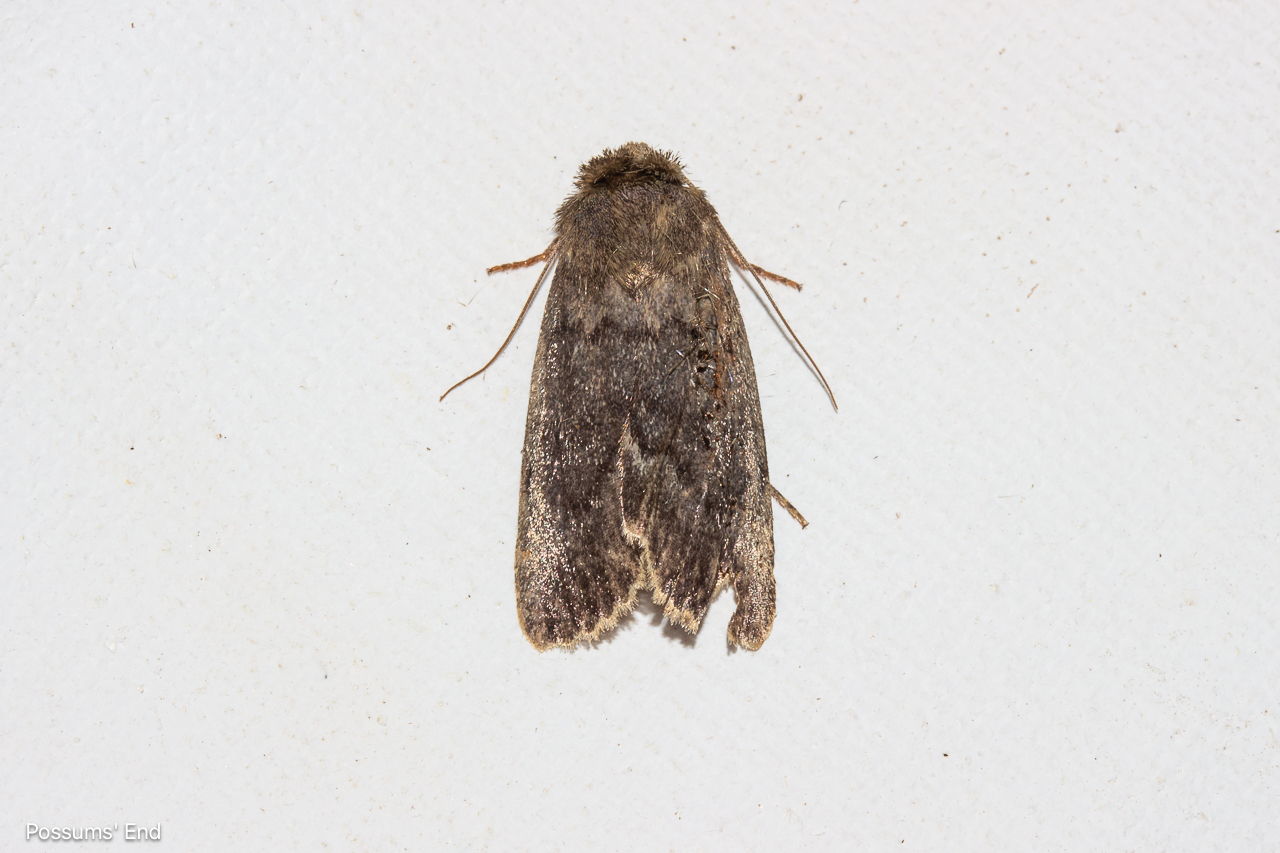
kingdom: Animalia
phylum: Arthropoda
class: Insecta
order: Lepidoptera
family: Noctuidae
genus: Bityla
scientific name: Bityla sericea
